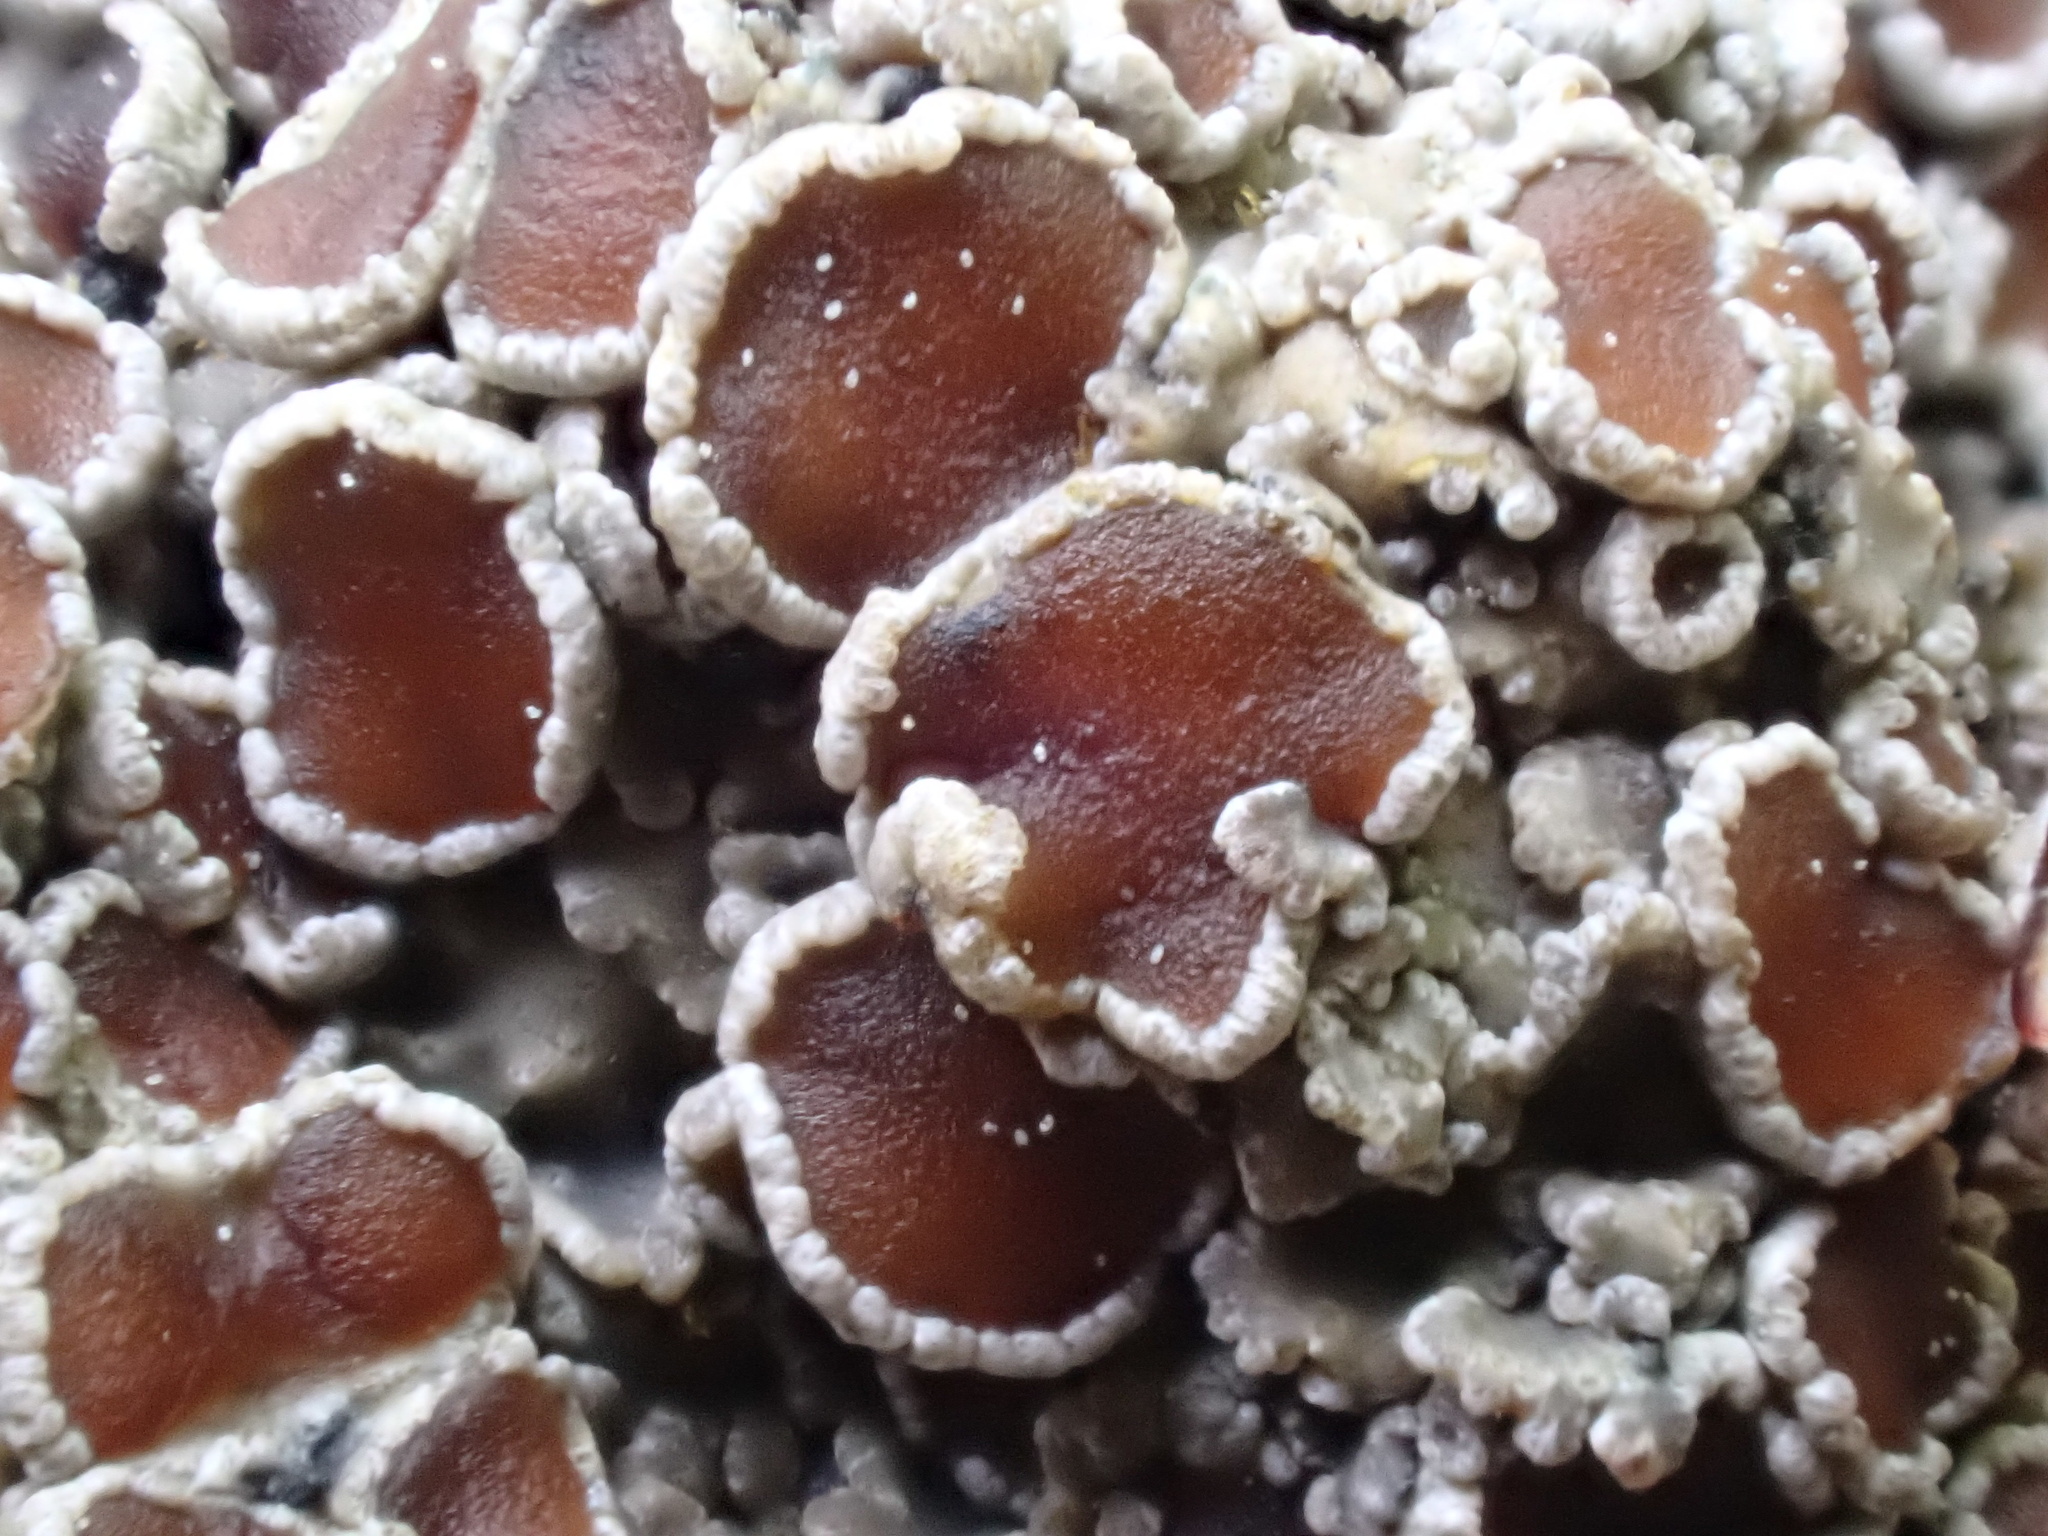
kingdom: Fungi
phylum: Ascomycota
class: Lecanoromycetes
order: Peltigerales
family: Pannariaceae
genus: Pannaria
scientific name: Pannaria rubiginosa
